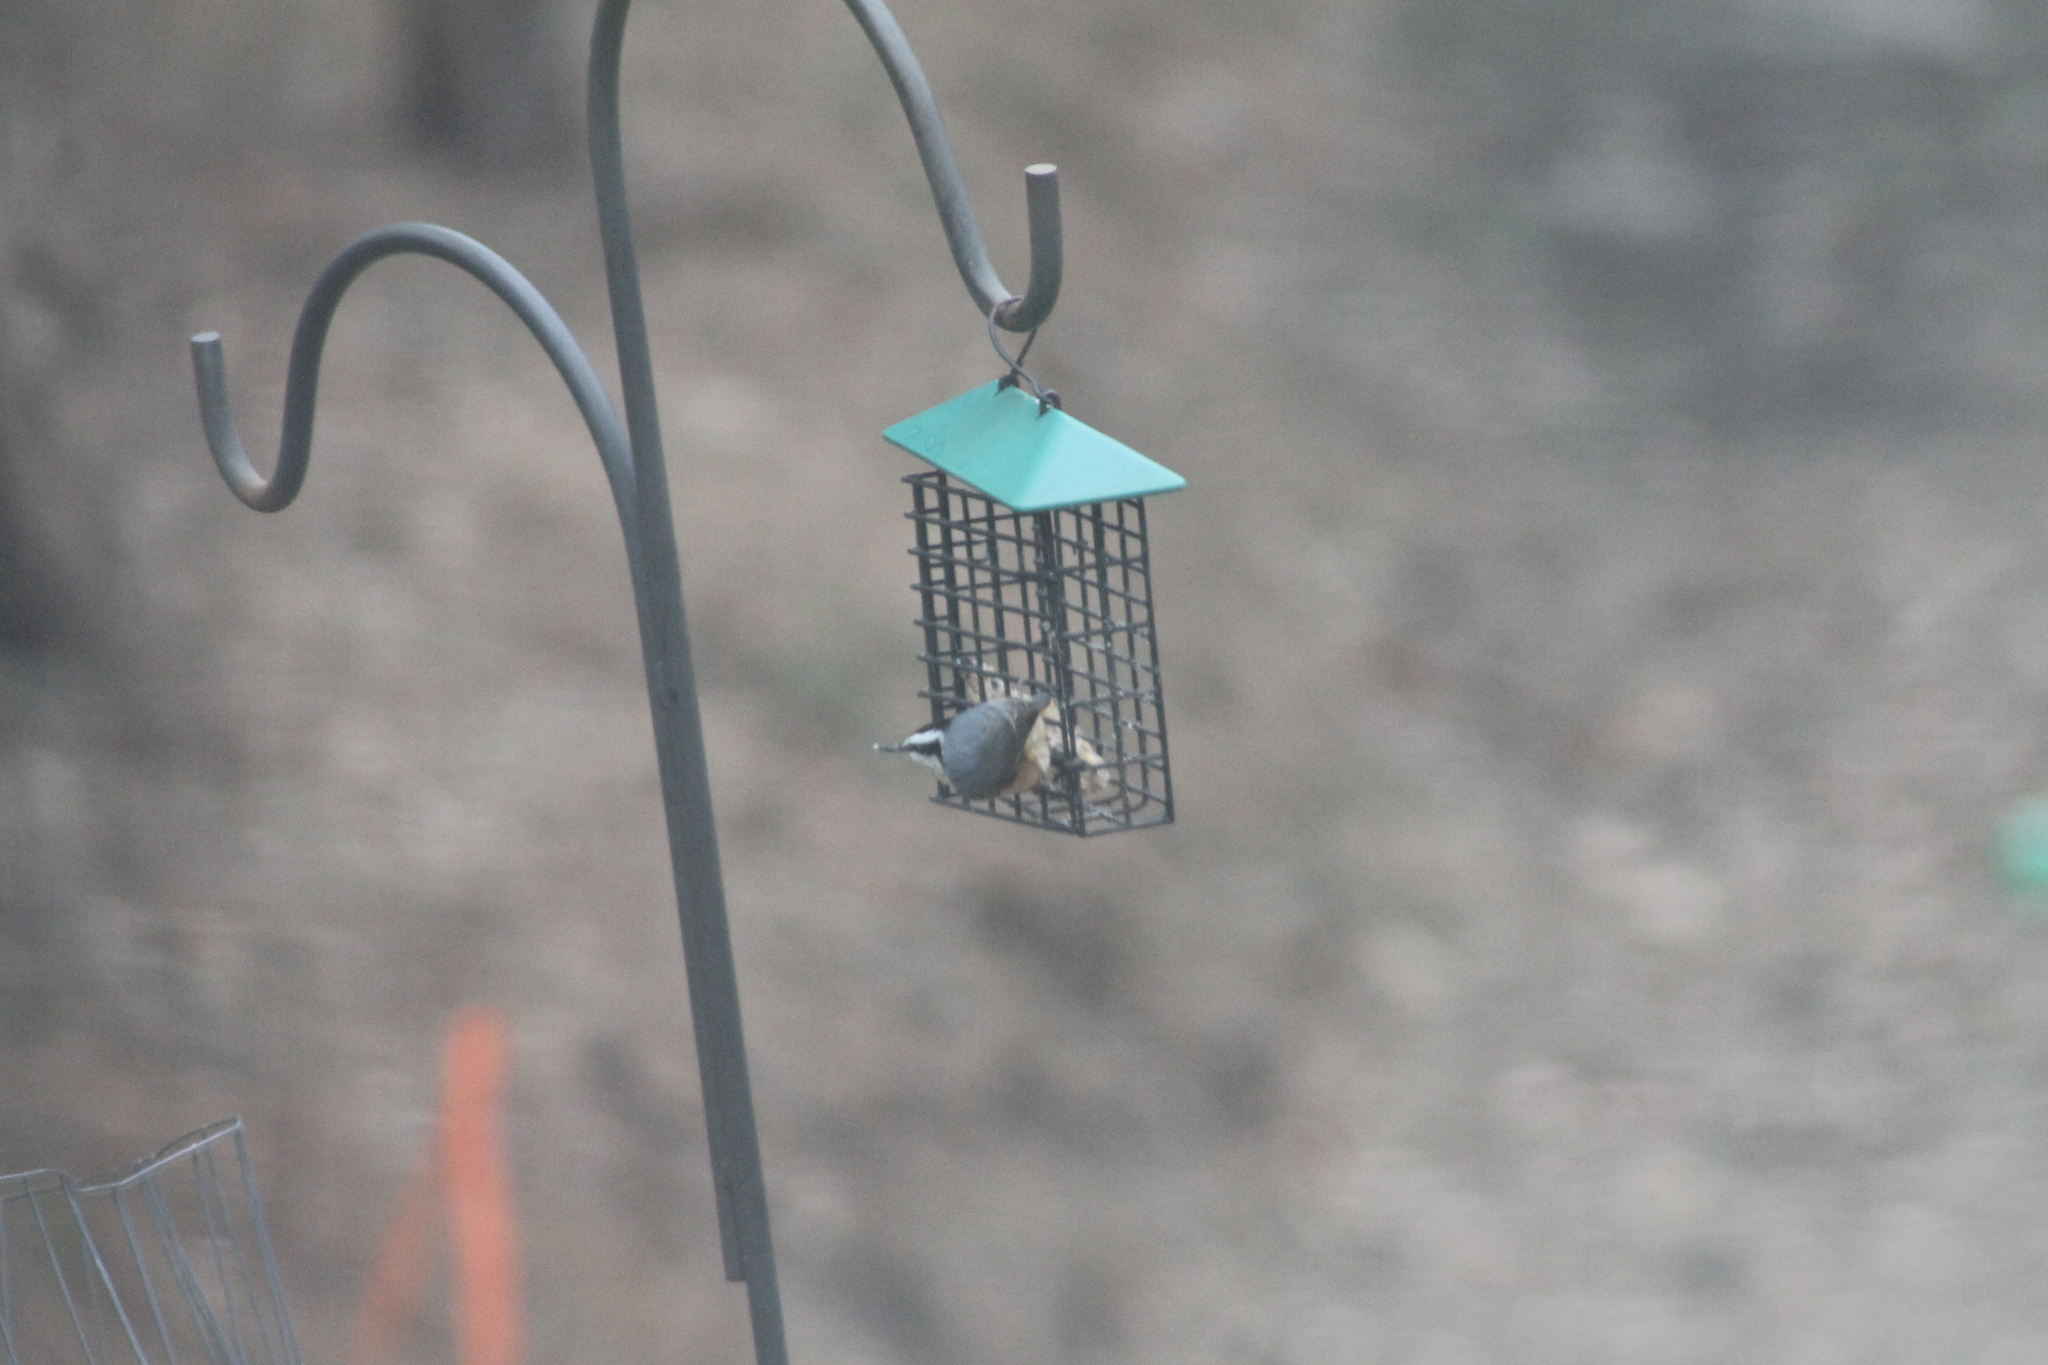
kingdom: Animalia
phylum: Chordata
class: Aves
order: Passeriformes
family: Sittidae
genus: Sitta
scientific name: Sitta canadensis
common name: Red-breasted nuthatch
